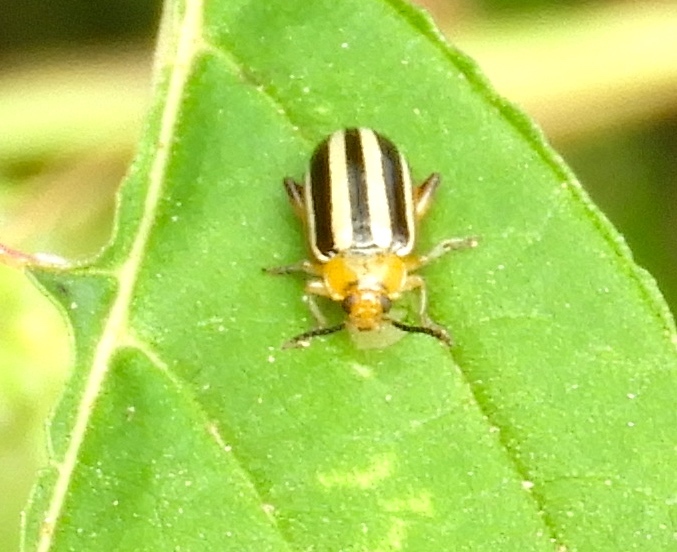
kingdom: Animalia
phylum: Arthropoda
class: Insecta
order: Coleoptera
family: Chrysomelidae
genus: Disonycha
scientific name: Disonycha glabrata
